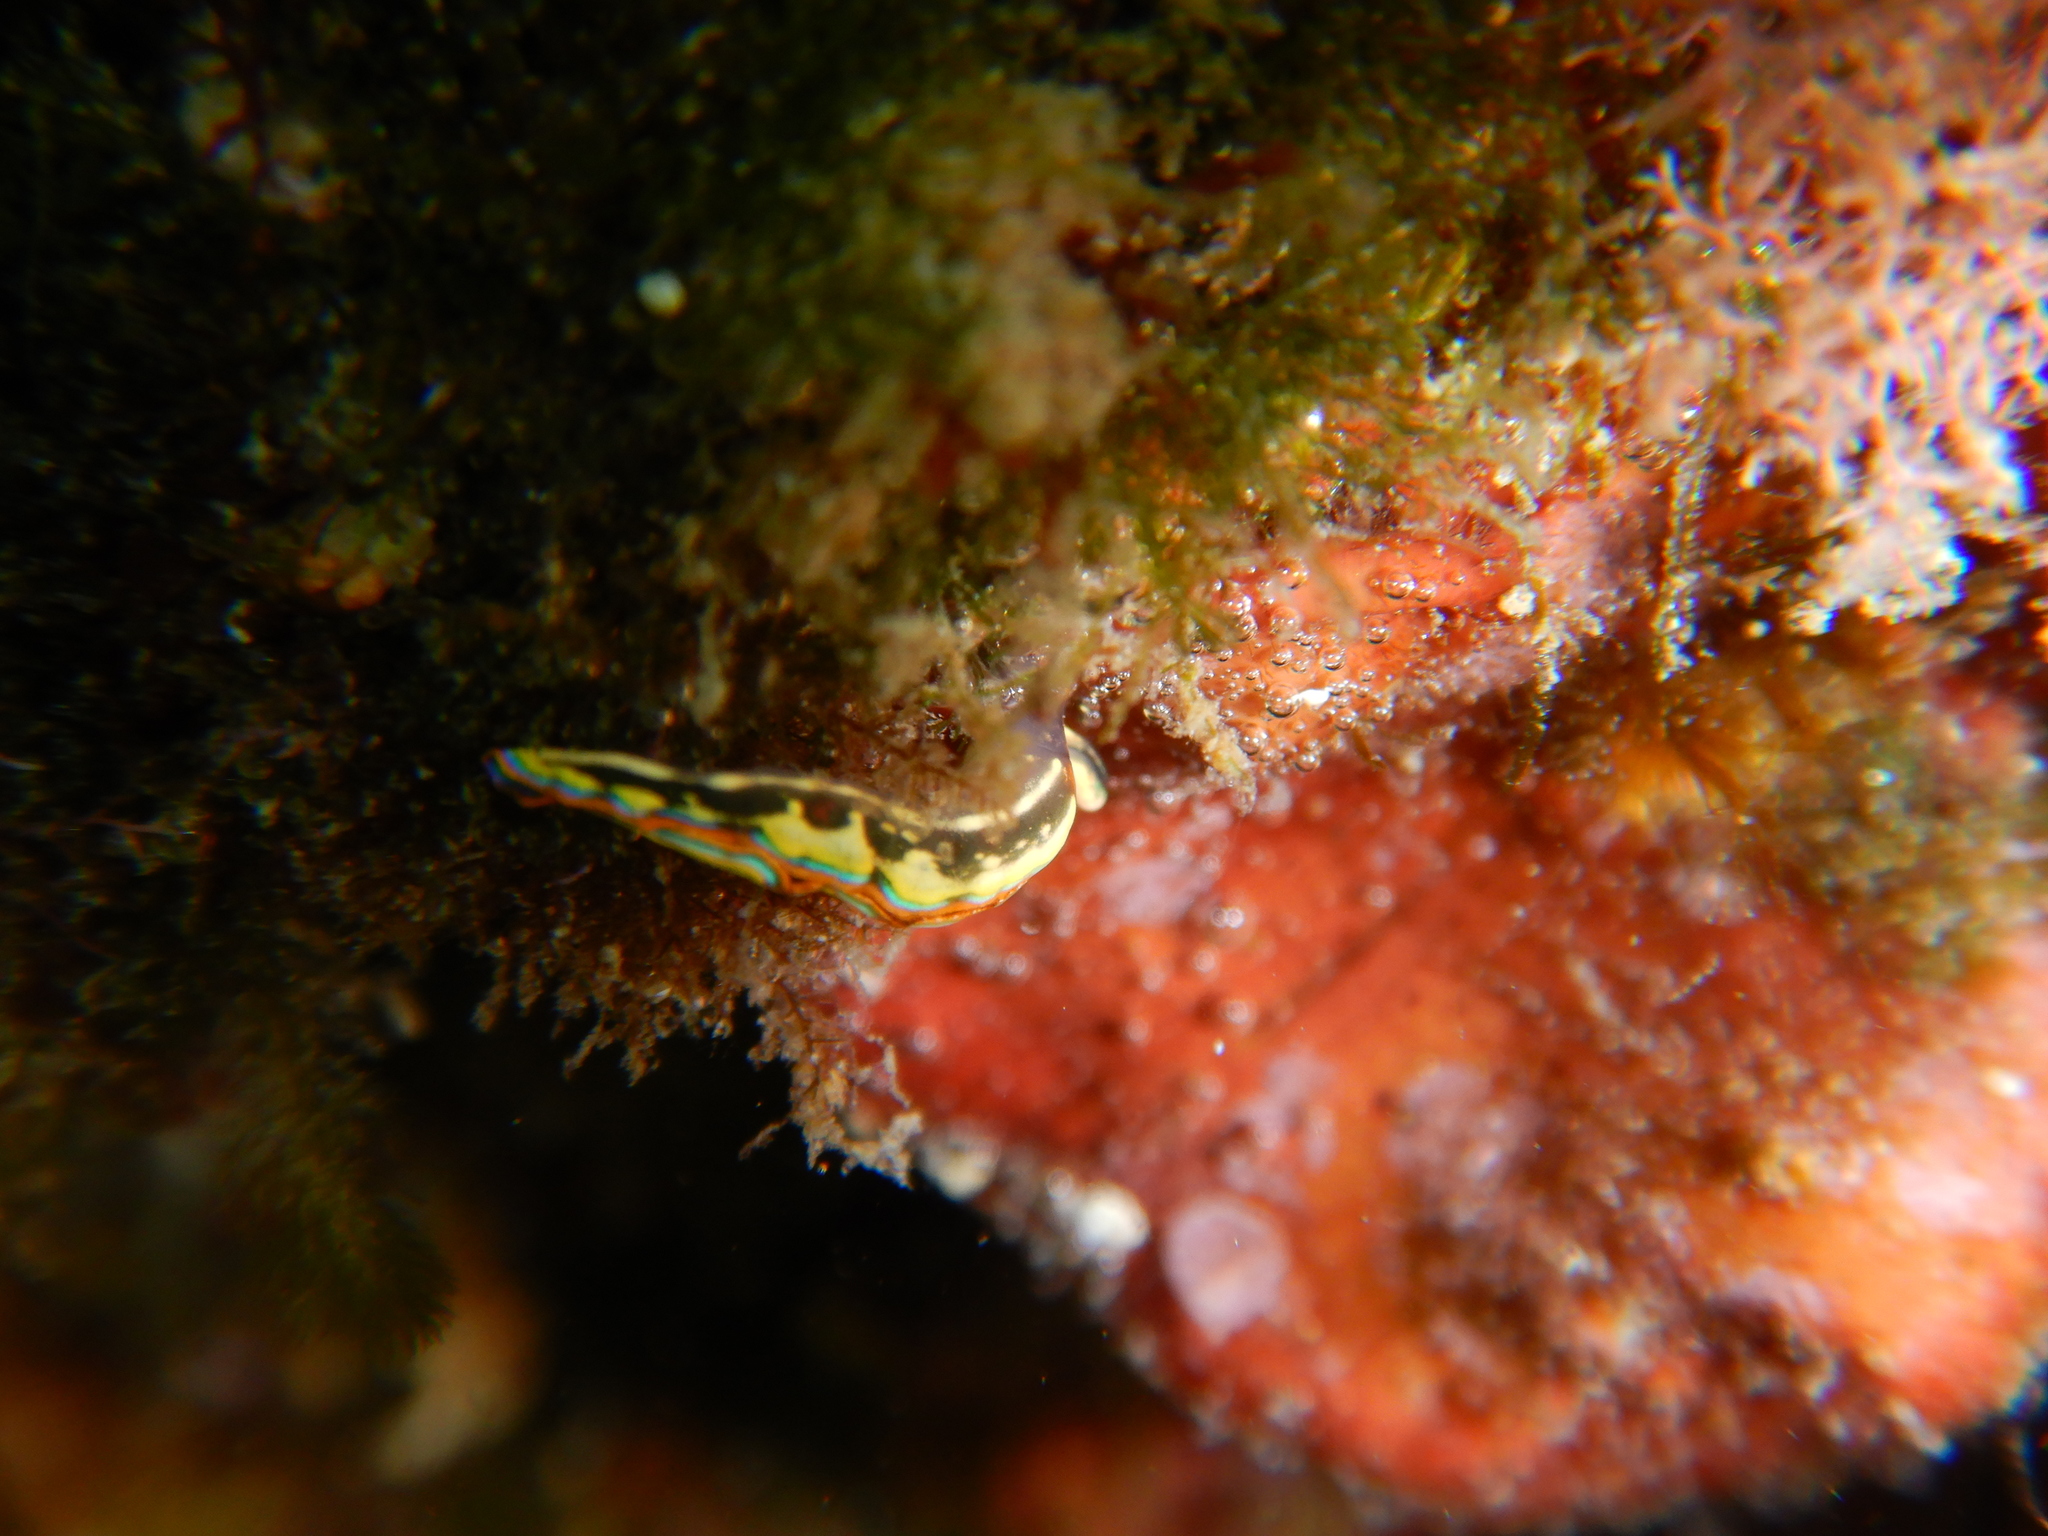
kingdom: Animalia
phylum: Mollusca
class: Gastropoda
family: Plakobranchidae
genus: Thuridilla
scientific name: Thuridilla hopei
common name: Splendid elysia
